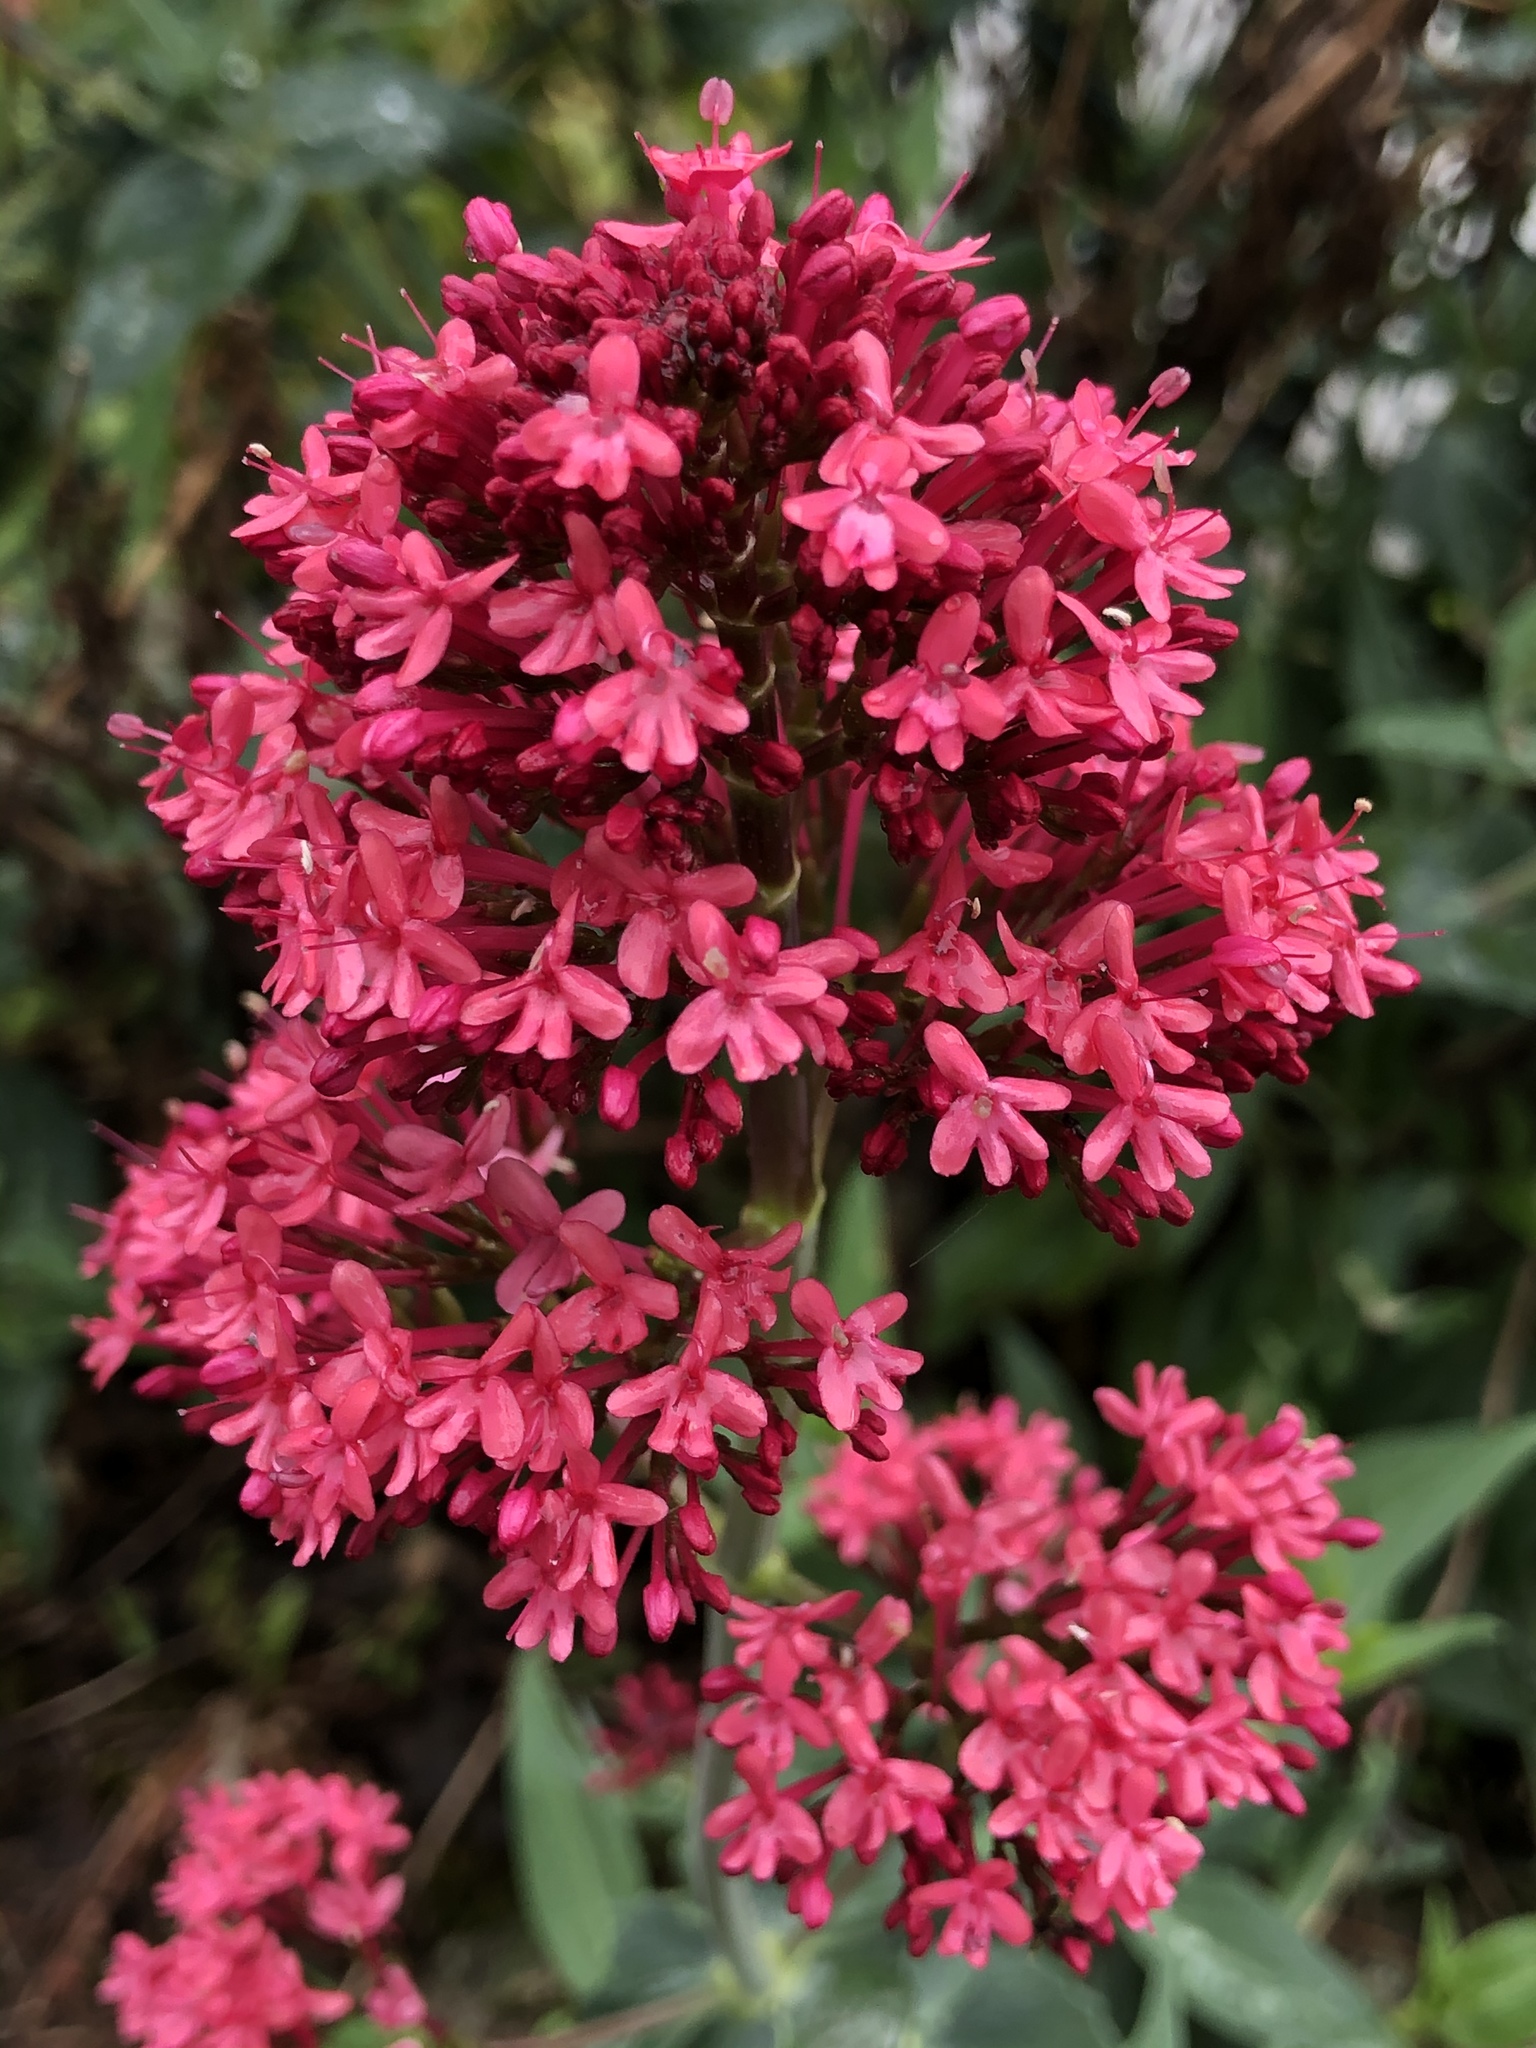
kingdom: Plantae
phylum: Tracheophyta
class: Magnoliopsida
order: Dipsacales
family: Caprifoliaceae
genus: Centranthus
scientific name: Centranthus ruber
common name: Red valerian
